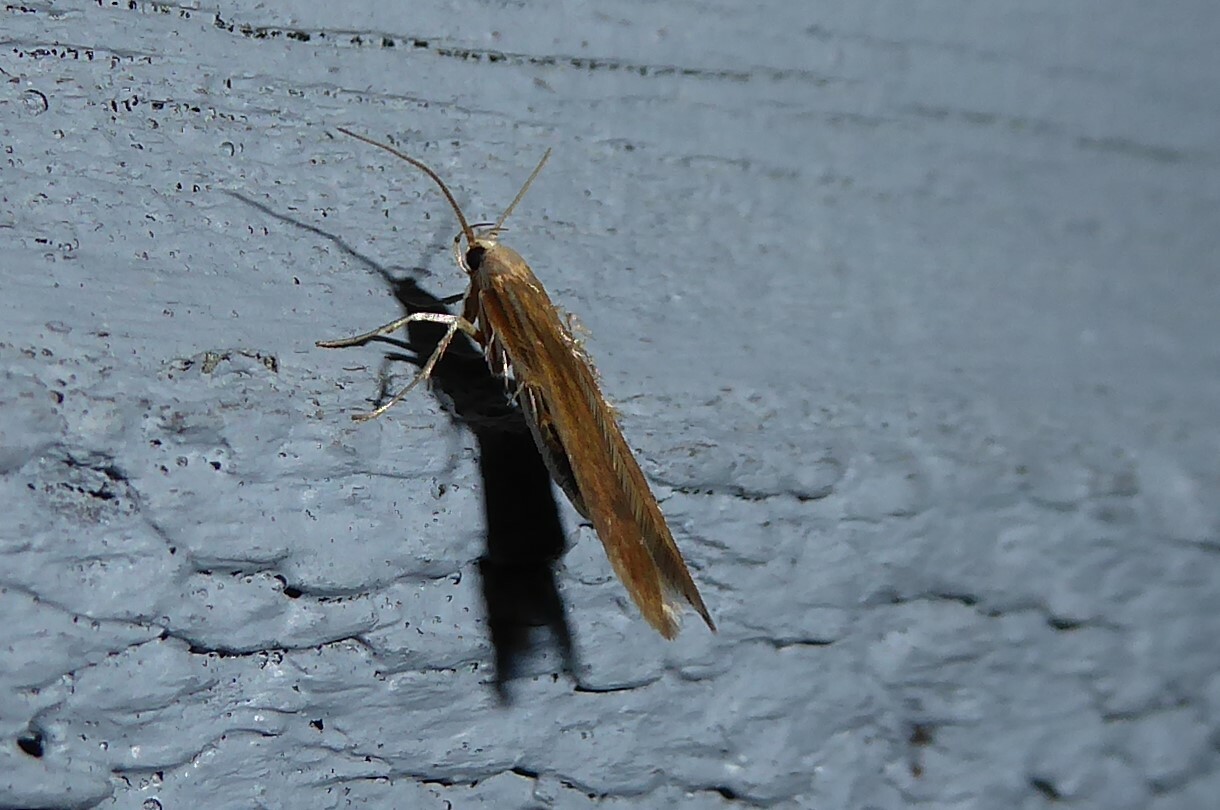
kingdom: Animalia
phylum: Arthropoda
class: Insecta
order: Lepidoptera
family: Stathmopodidae
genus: Stathmopoda
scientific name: Stathmopoda aposema
